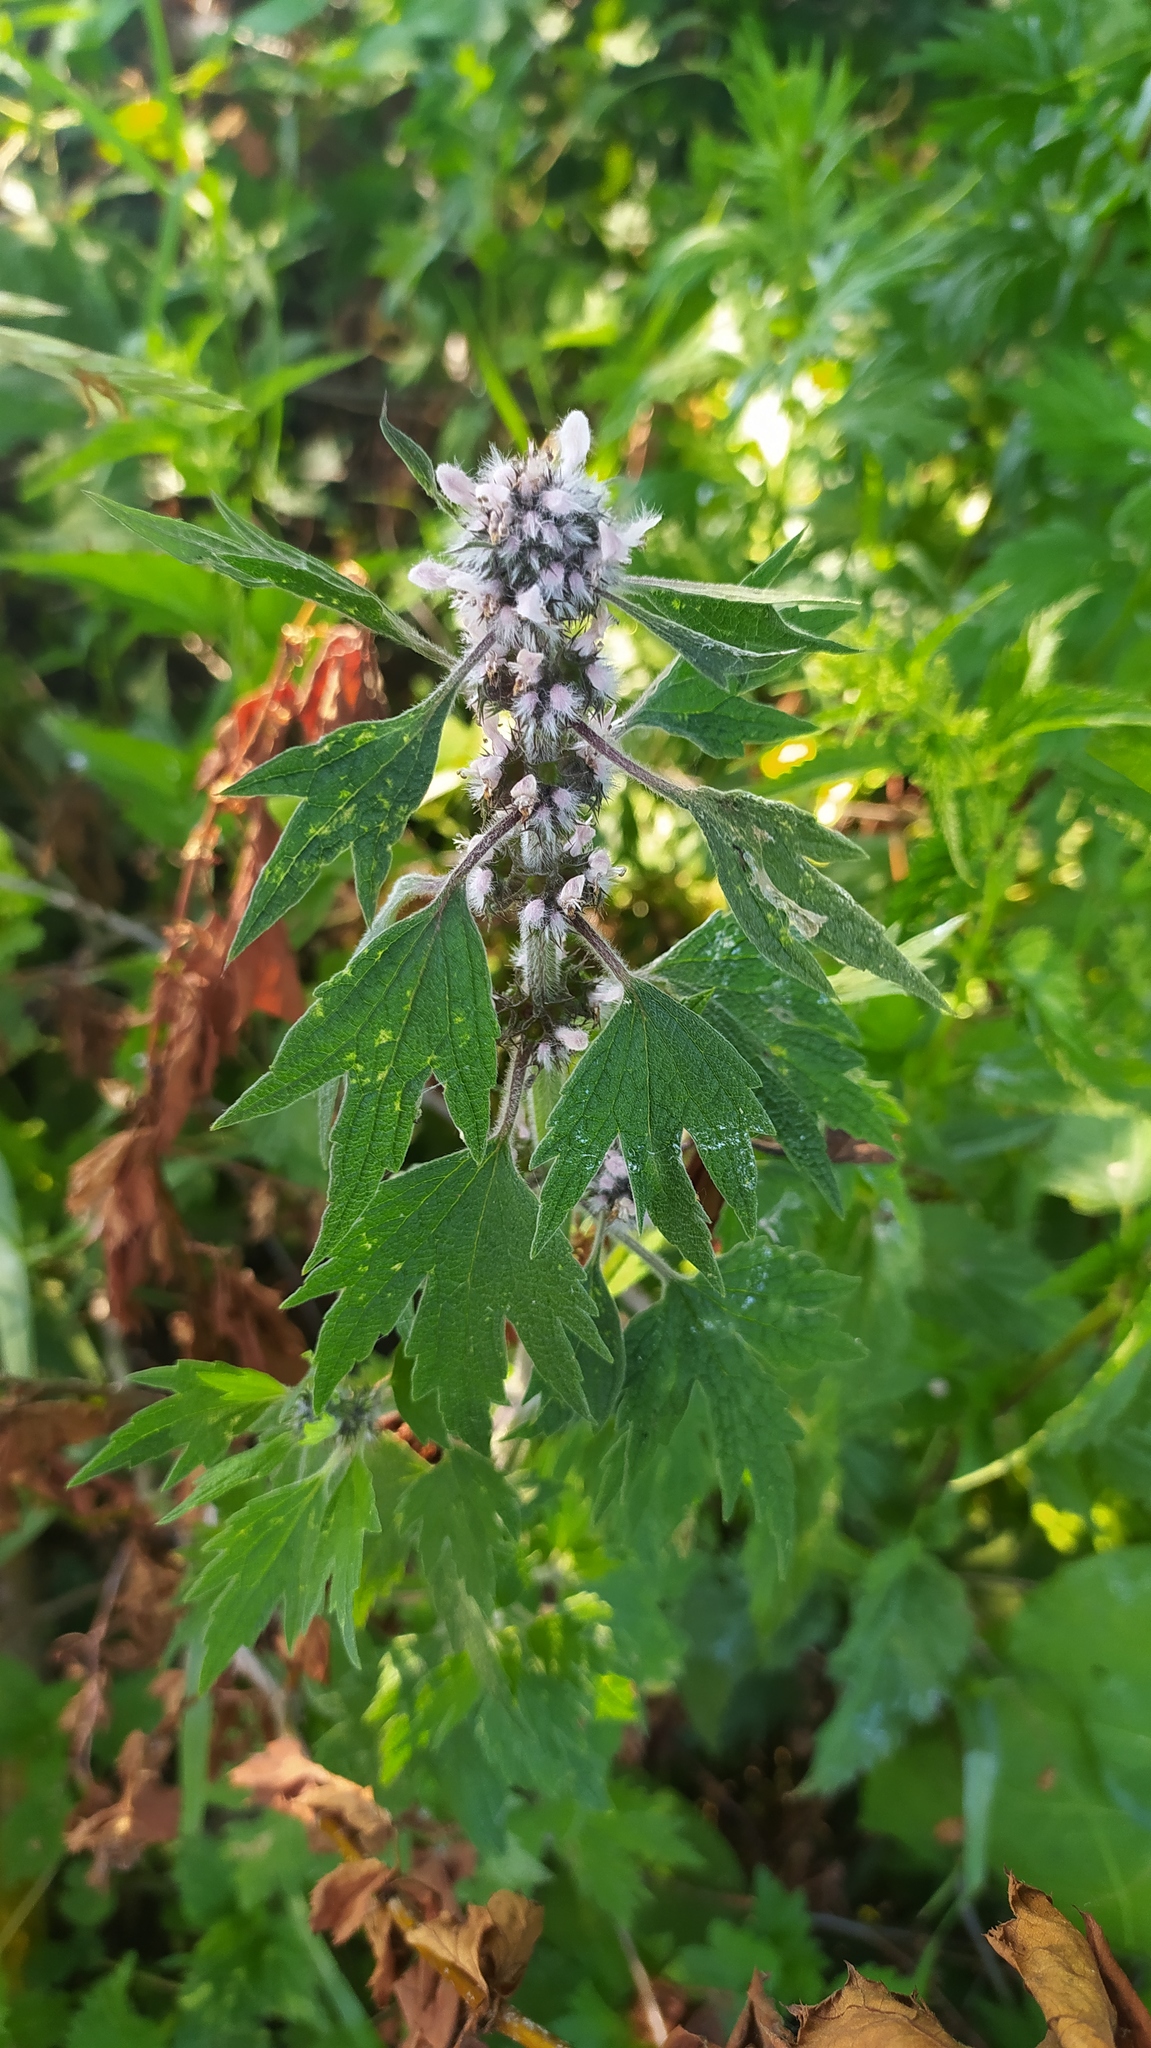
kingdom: Plantae
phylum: Tracheophyta
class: Magnoliopsida
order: Lamiales
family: Lamiaceae
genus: Leonurus
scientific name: Leonurus quinquelobatus
